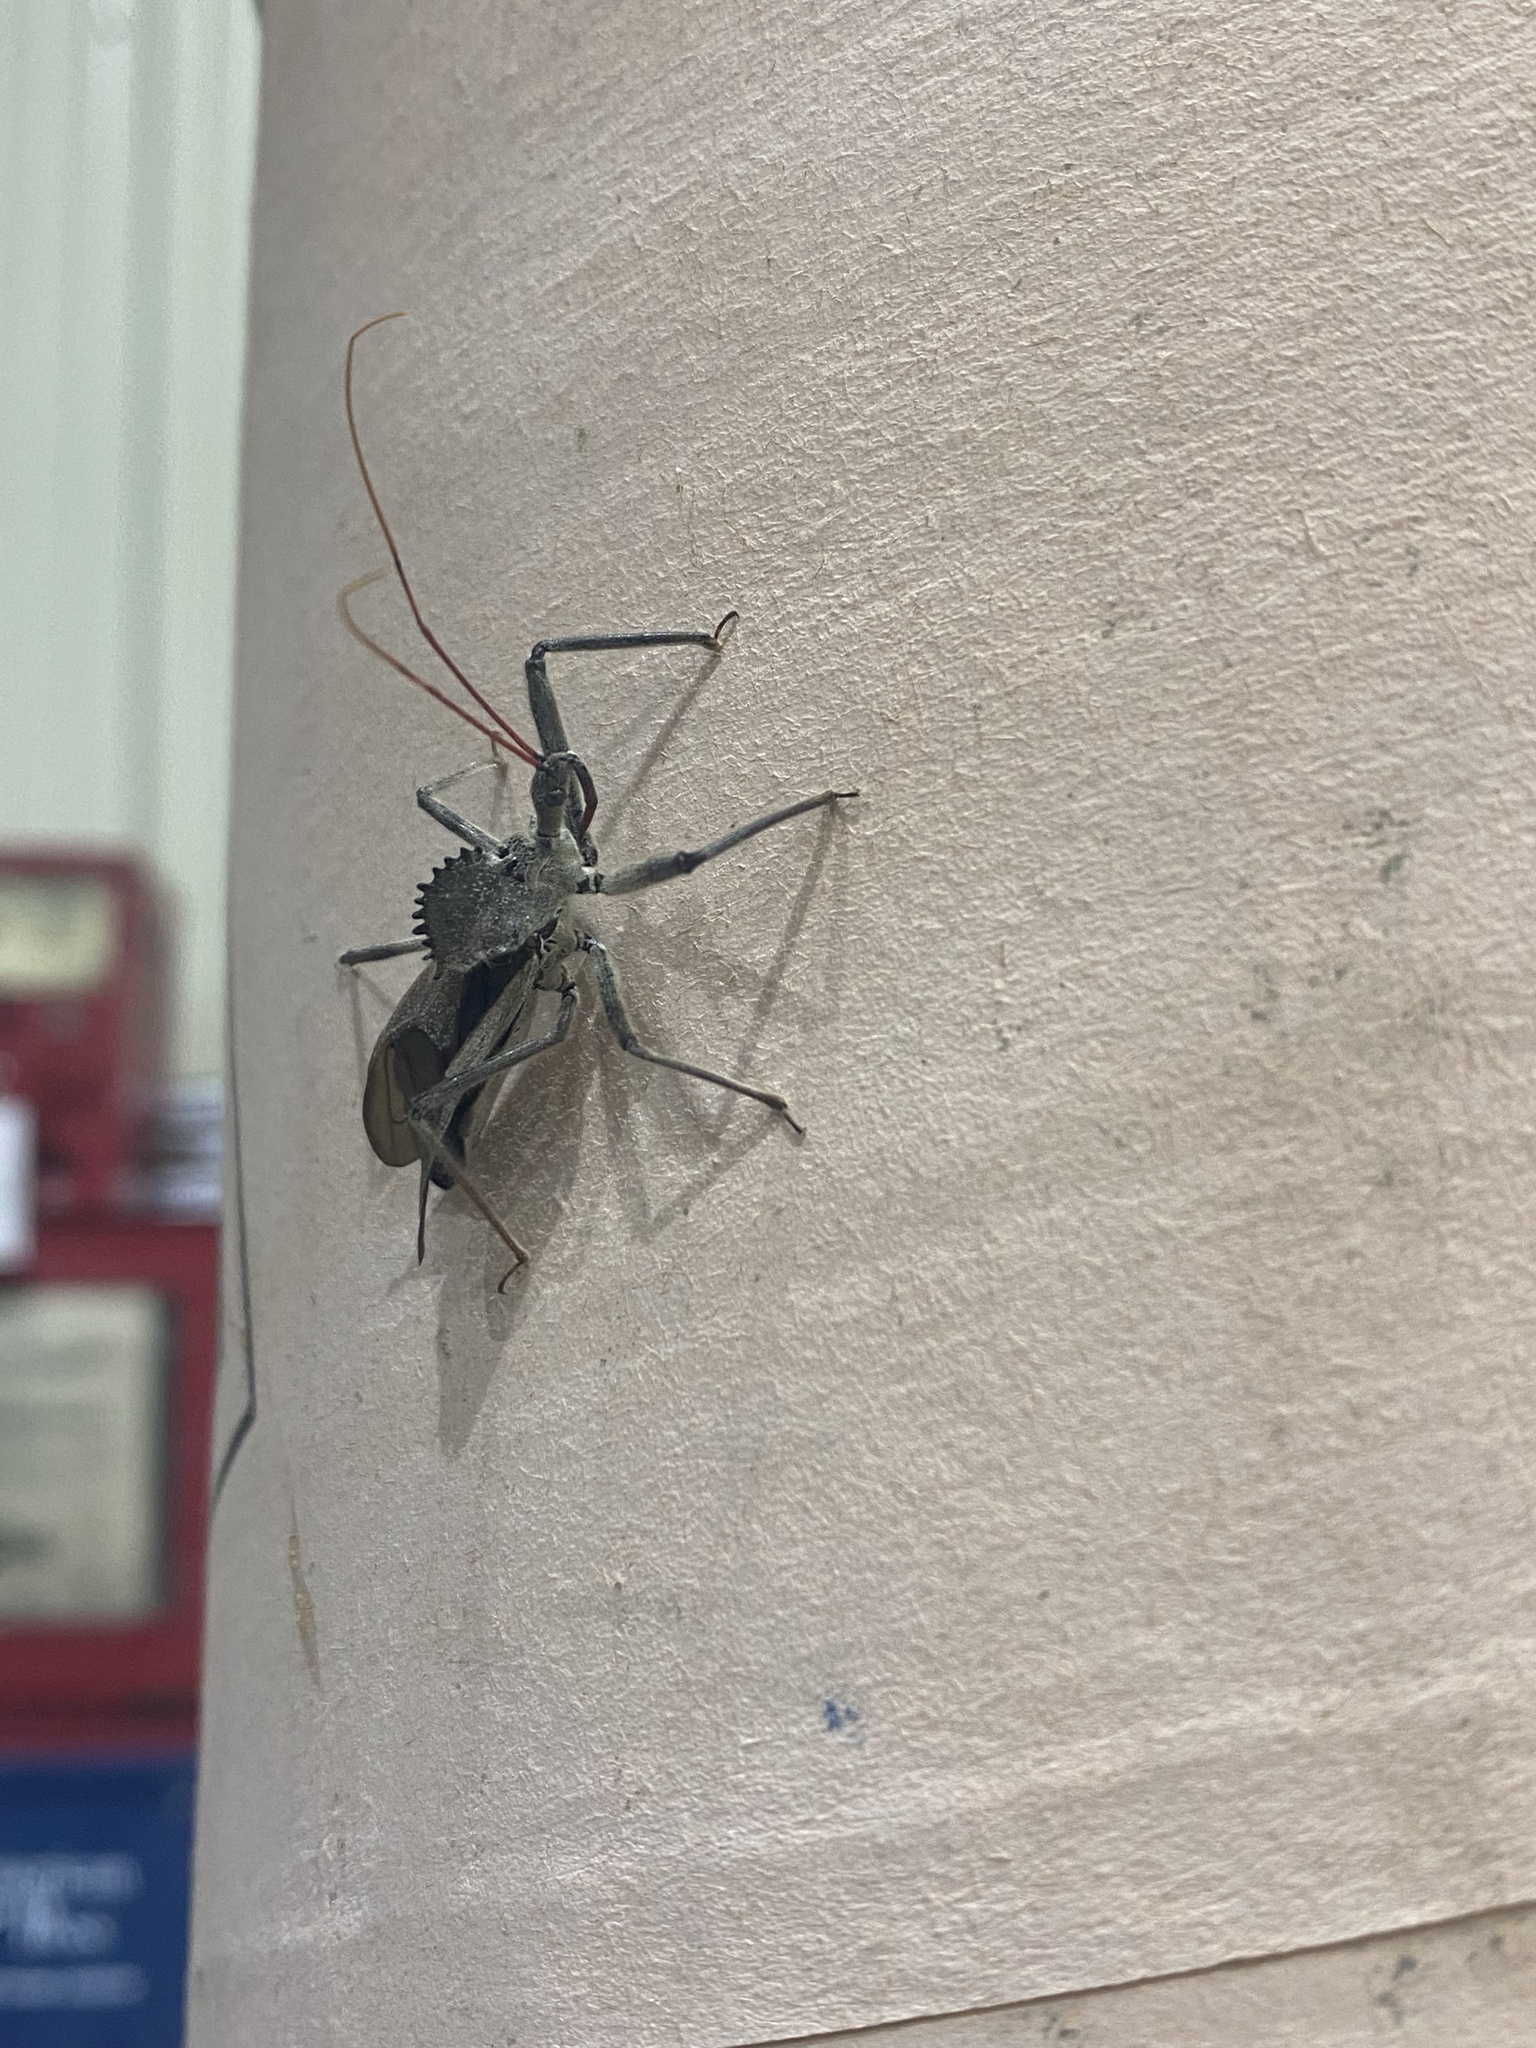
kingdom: Animalia
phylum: Arthropoda
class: Insecta
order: Hemiptera
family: Reduviidae
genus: Arilus
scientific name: Arilus cristatus
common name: North american wheel bug
